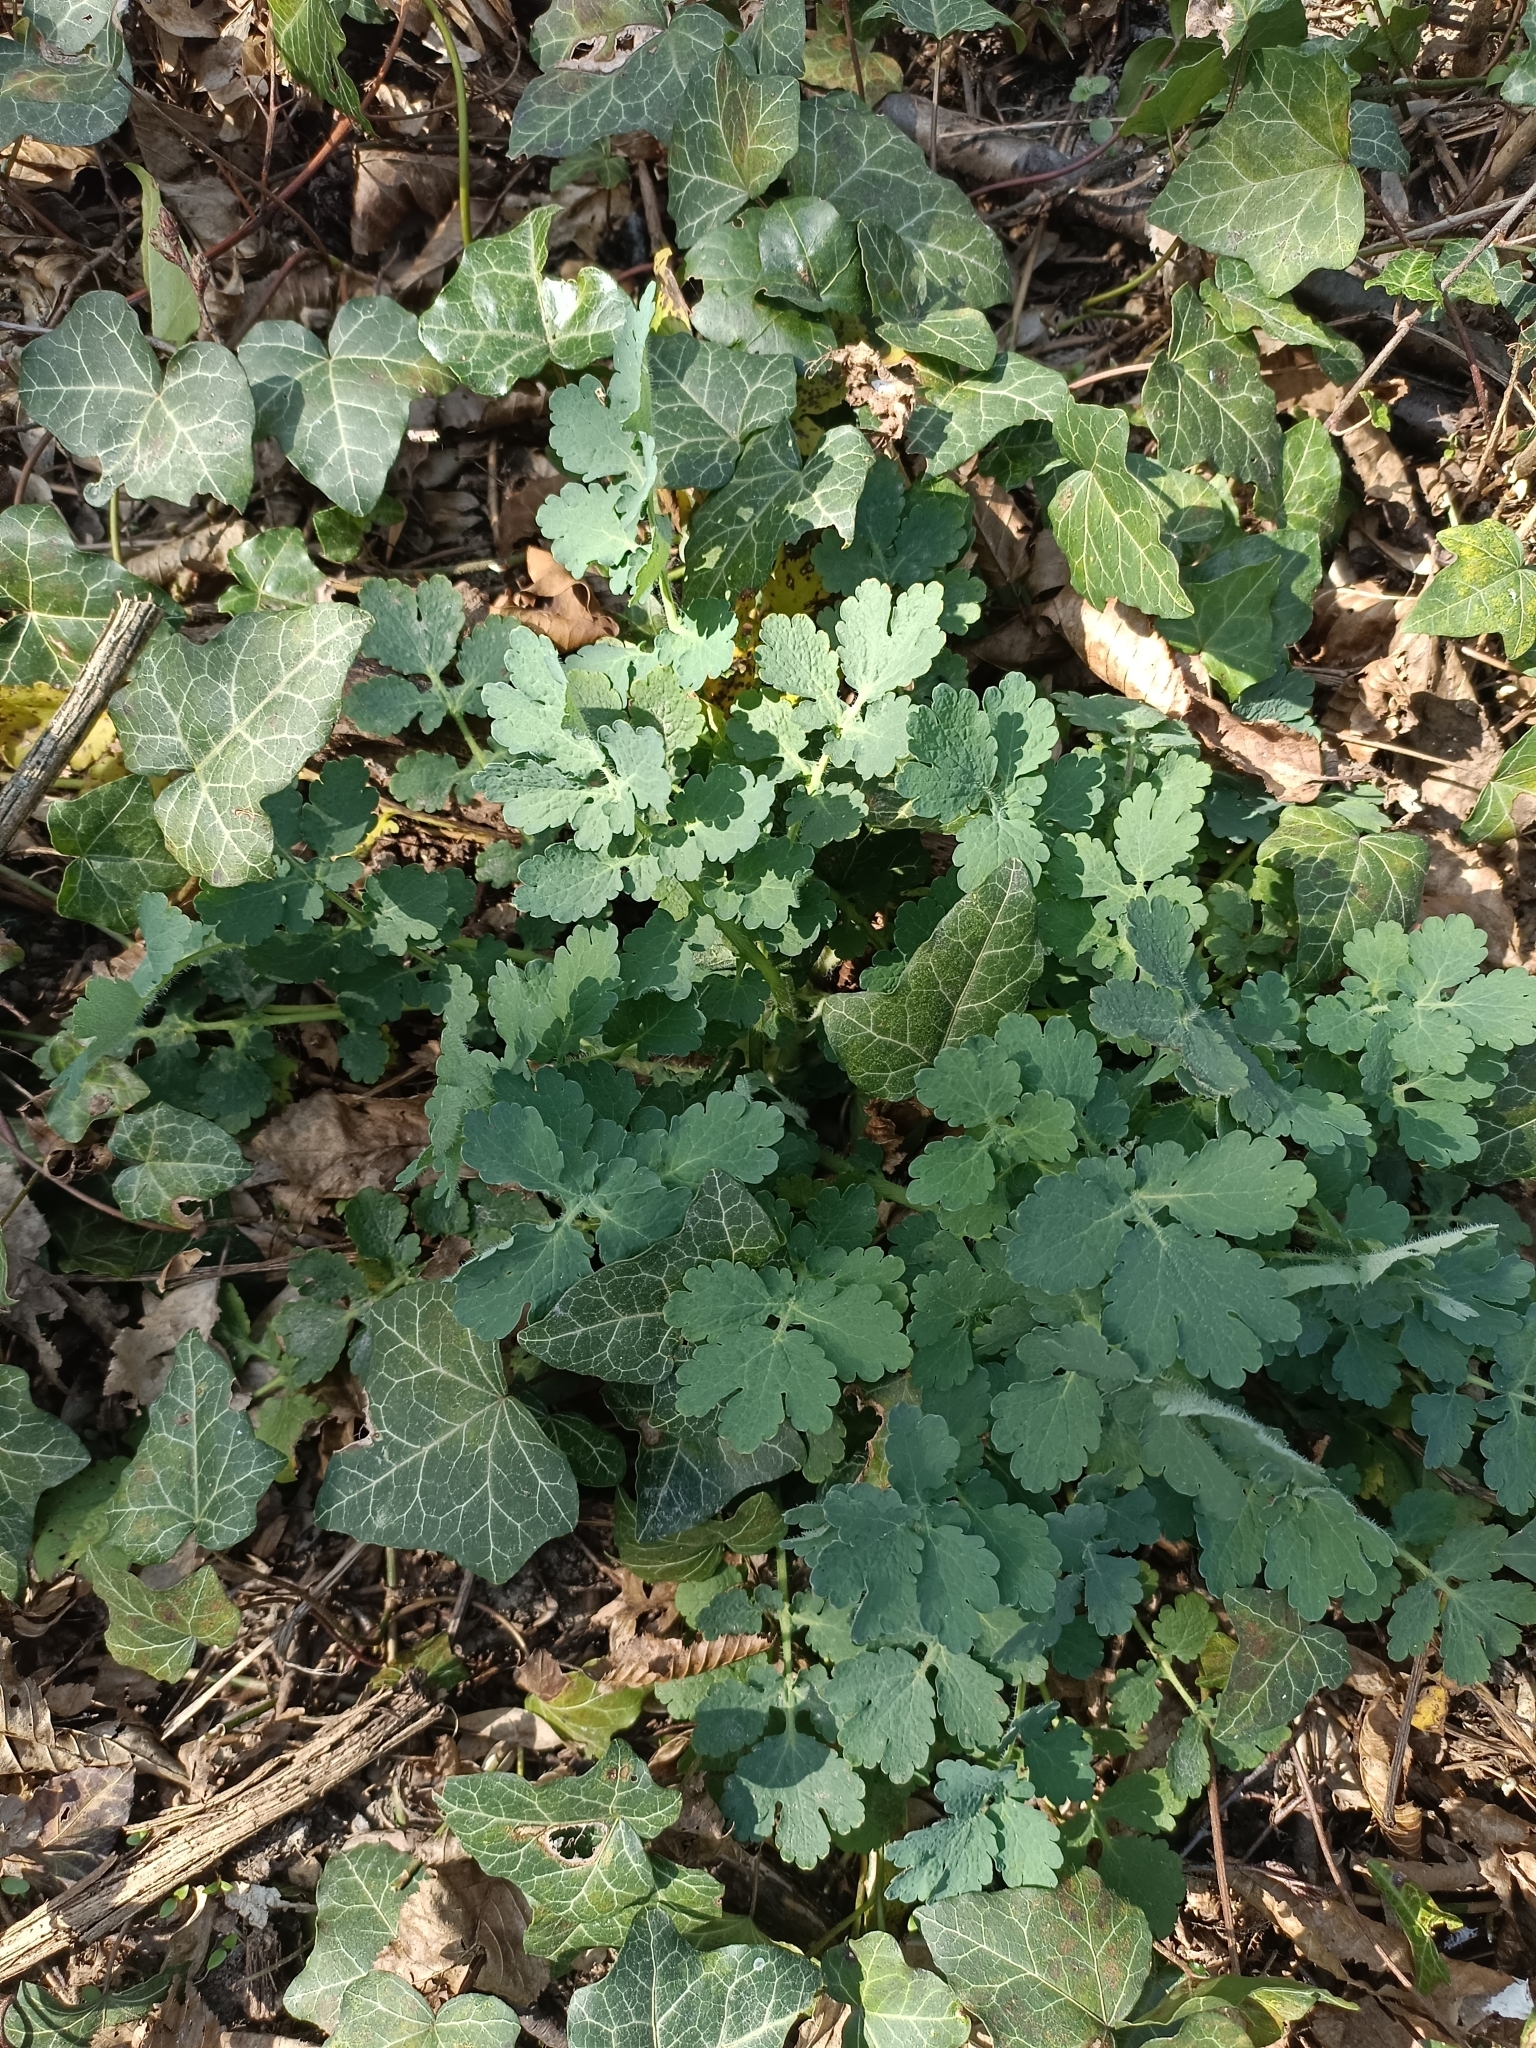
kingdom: Plantae
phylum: Tracheophyta
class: Magnoliopsida
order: Ranunculales
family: Papaveraceae
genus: Chelidonium
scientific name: Chelidonium majus
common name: Greater celandine
